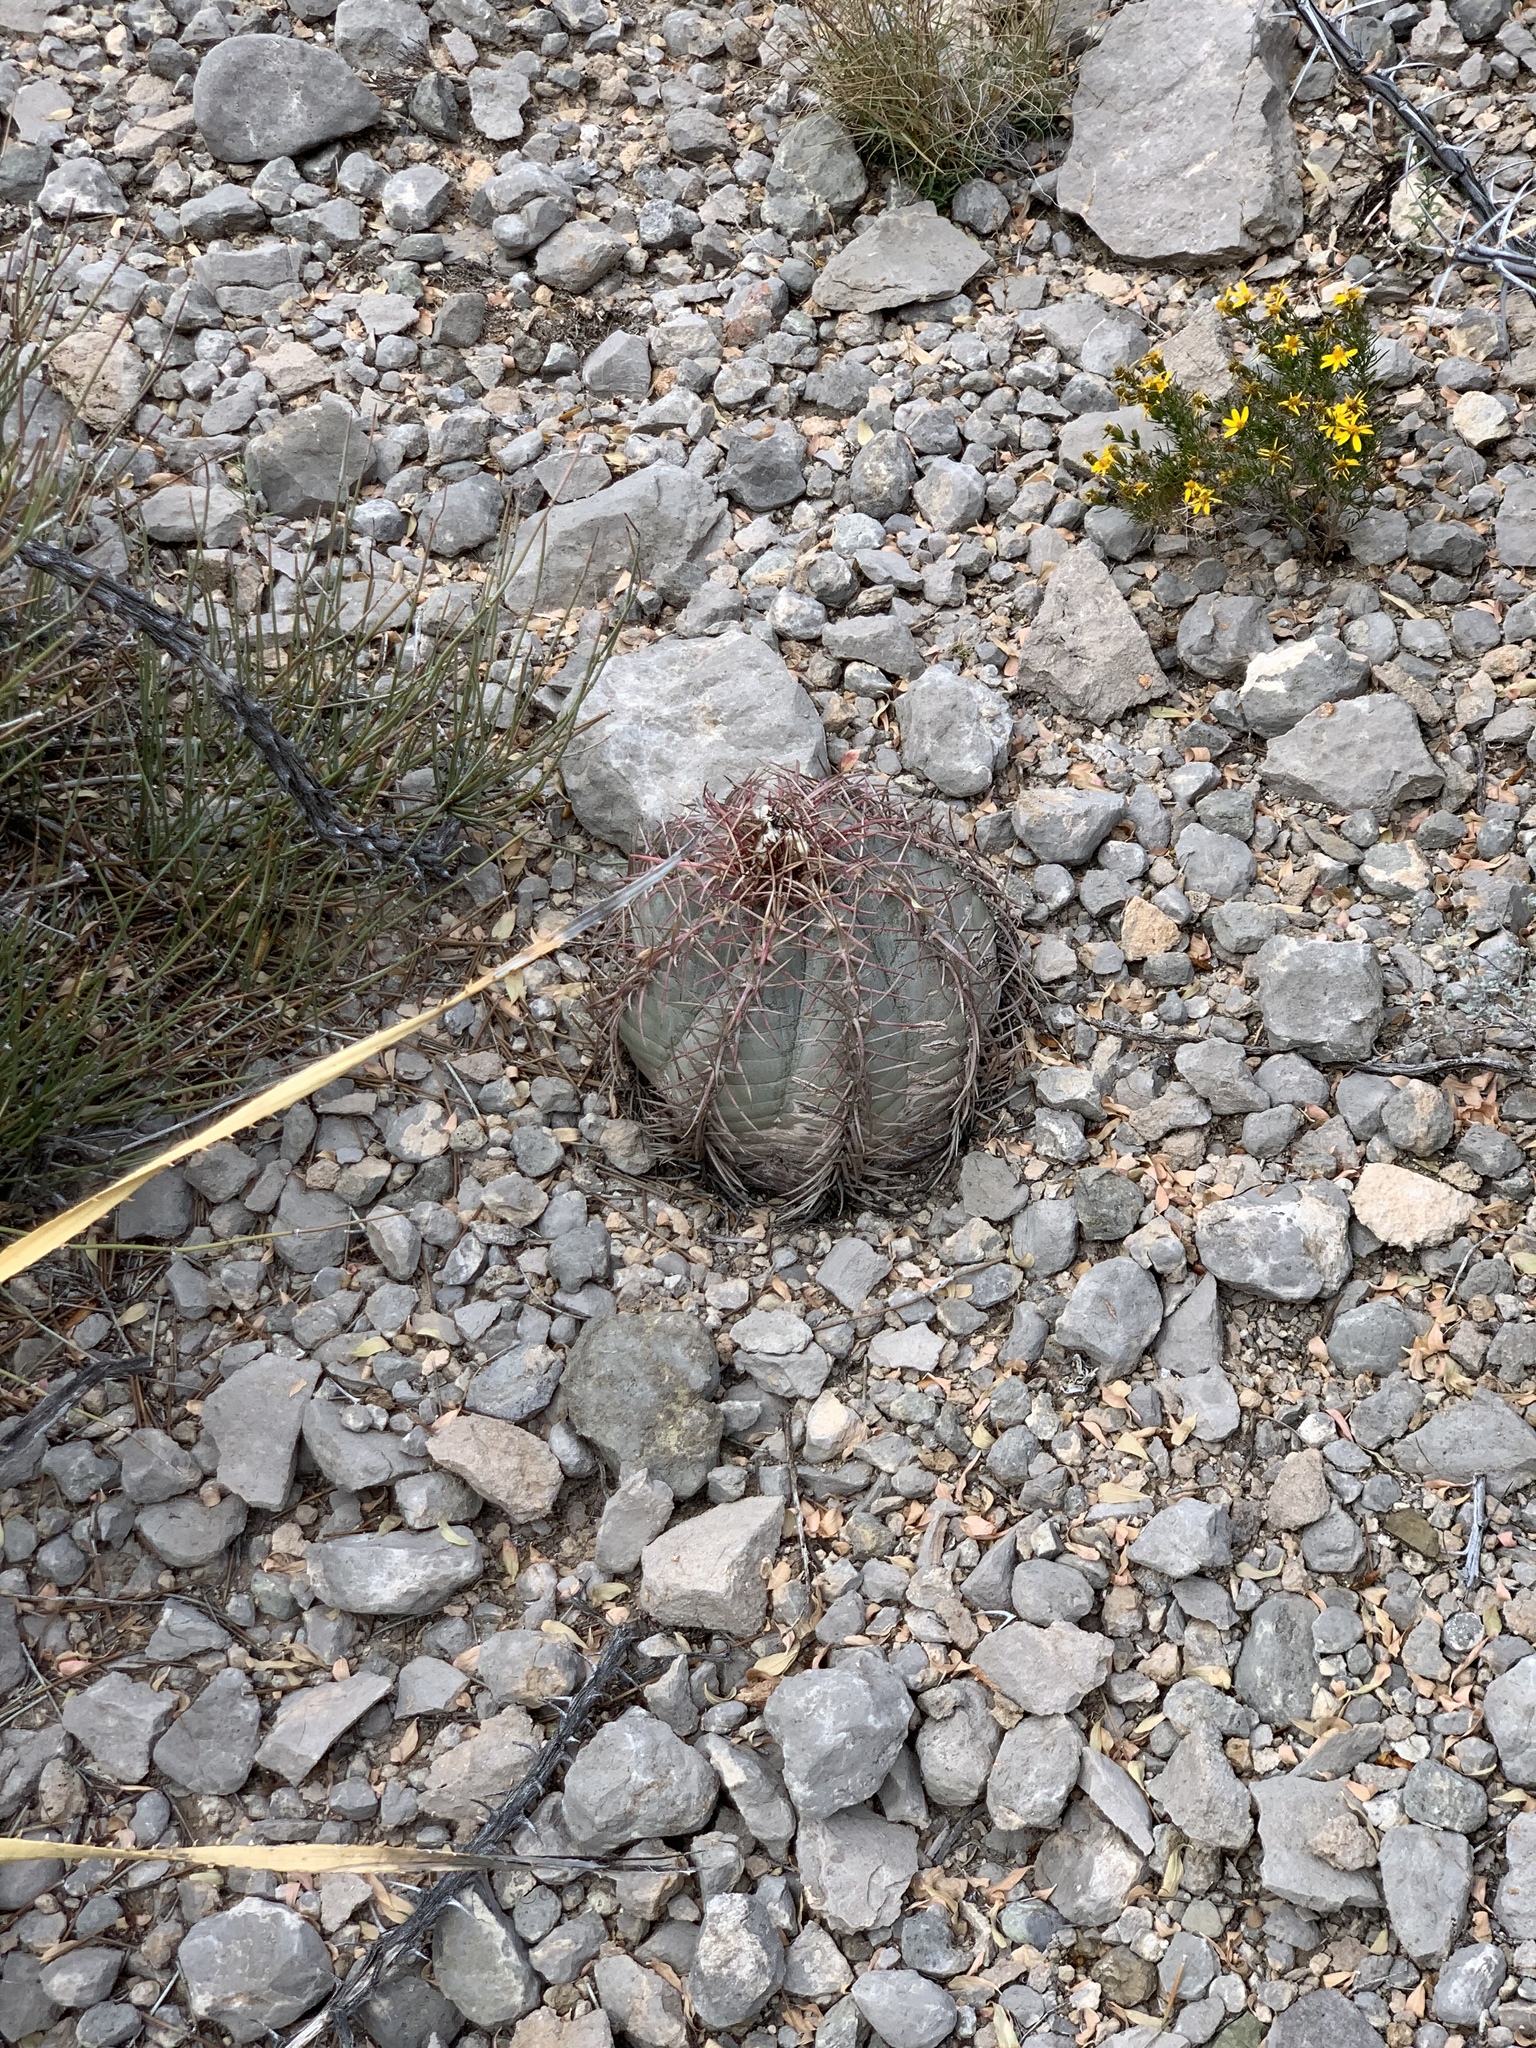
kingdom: Plantae
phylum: Tracheophyta
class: Magnoliopsida
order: Caryophyllales
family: Cactaceae
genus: Echinocactus
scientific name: Echinocactus horizonthalonius
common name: Devilshead
